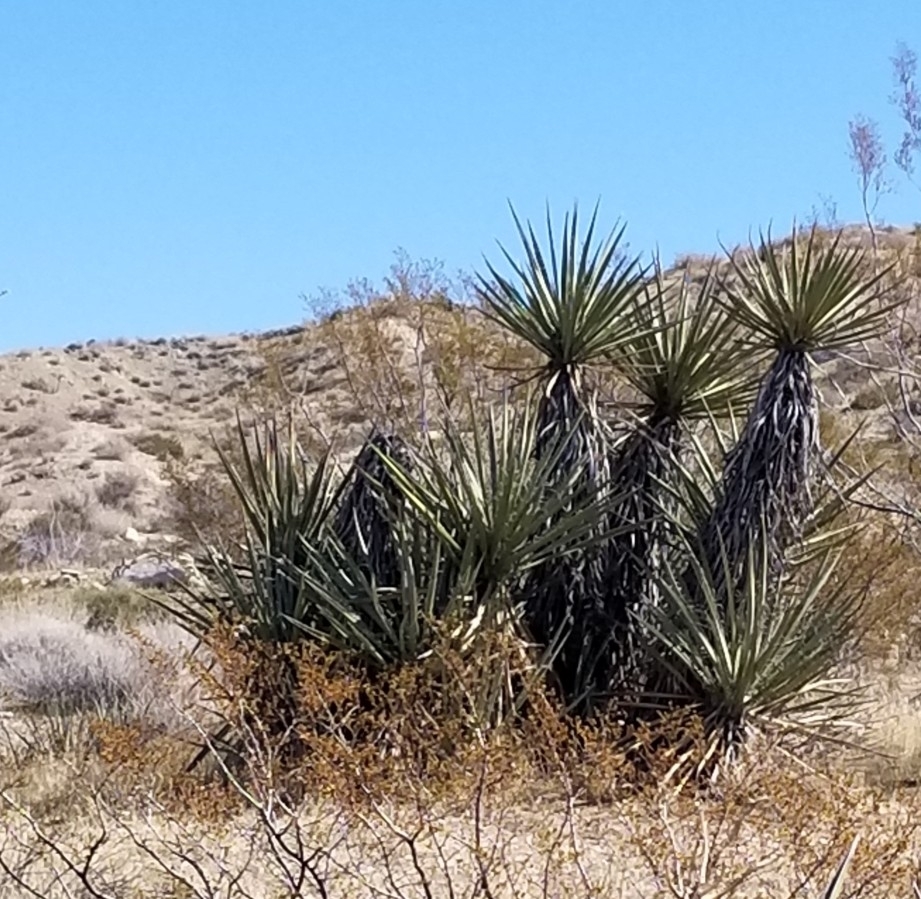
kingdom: Plantae
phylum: Tracheophyta
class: Liliopsida
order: Asparagales
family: Asparagaceae
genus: Yucca
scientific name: Yucca schidigera
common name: Mojave yucca
